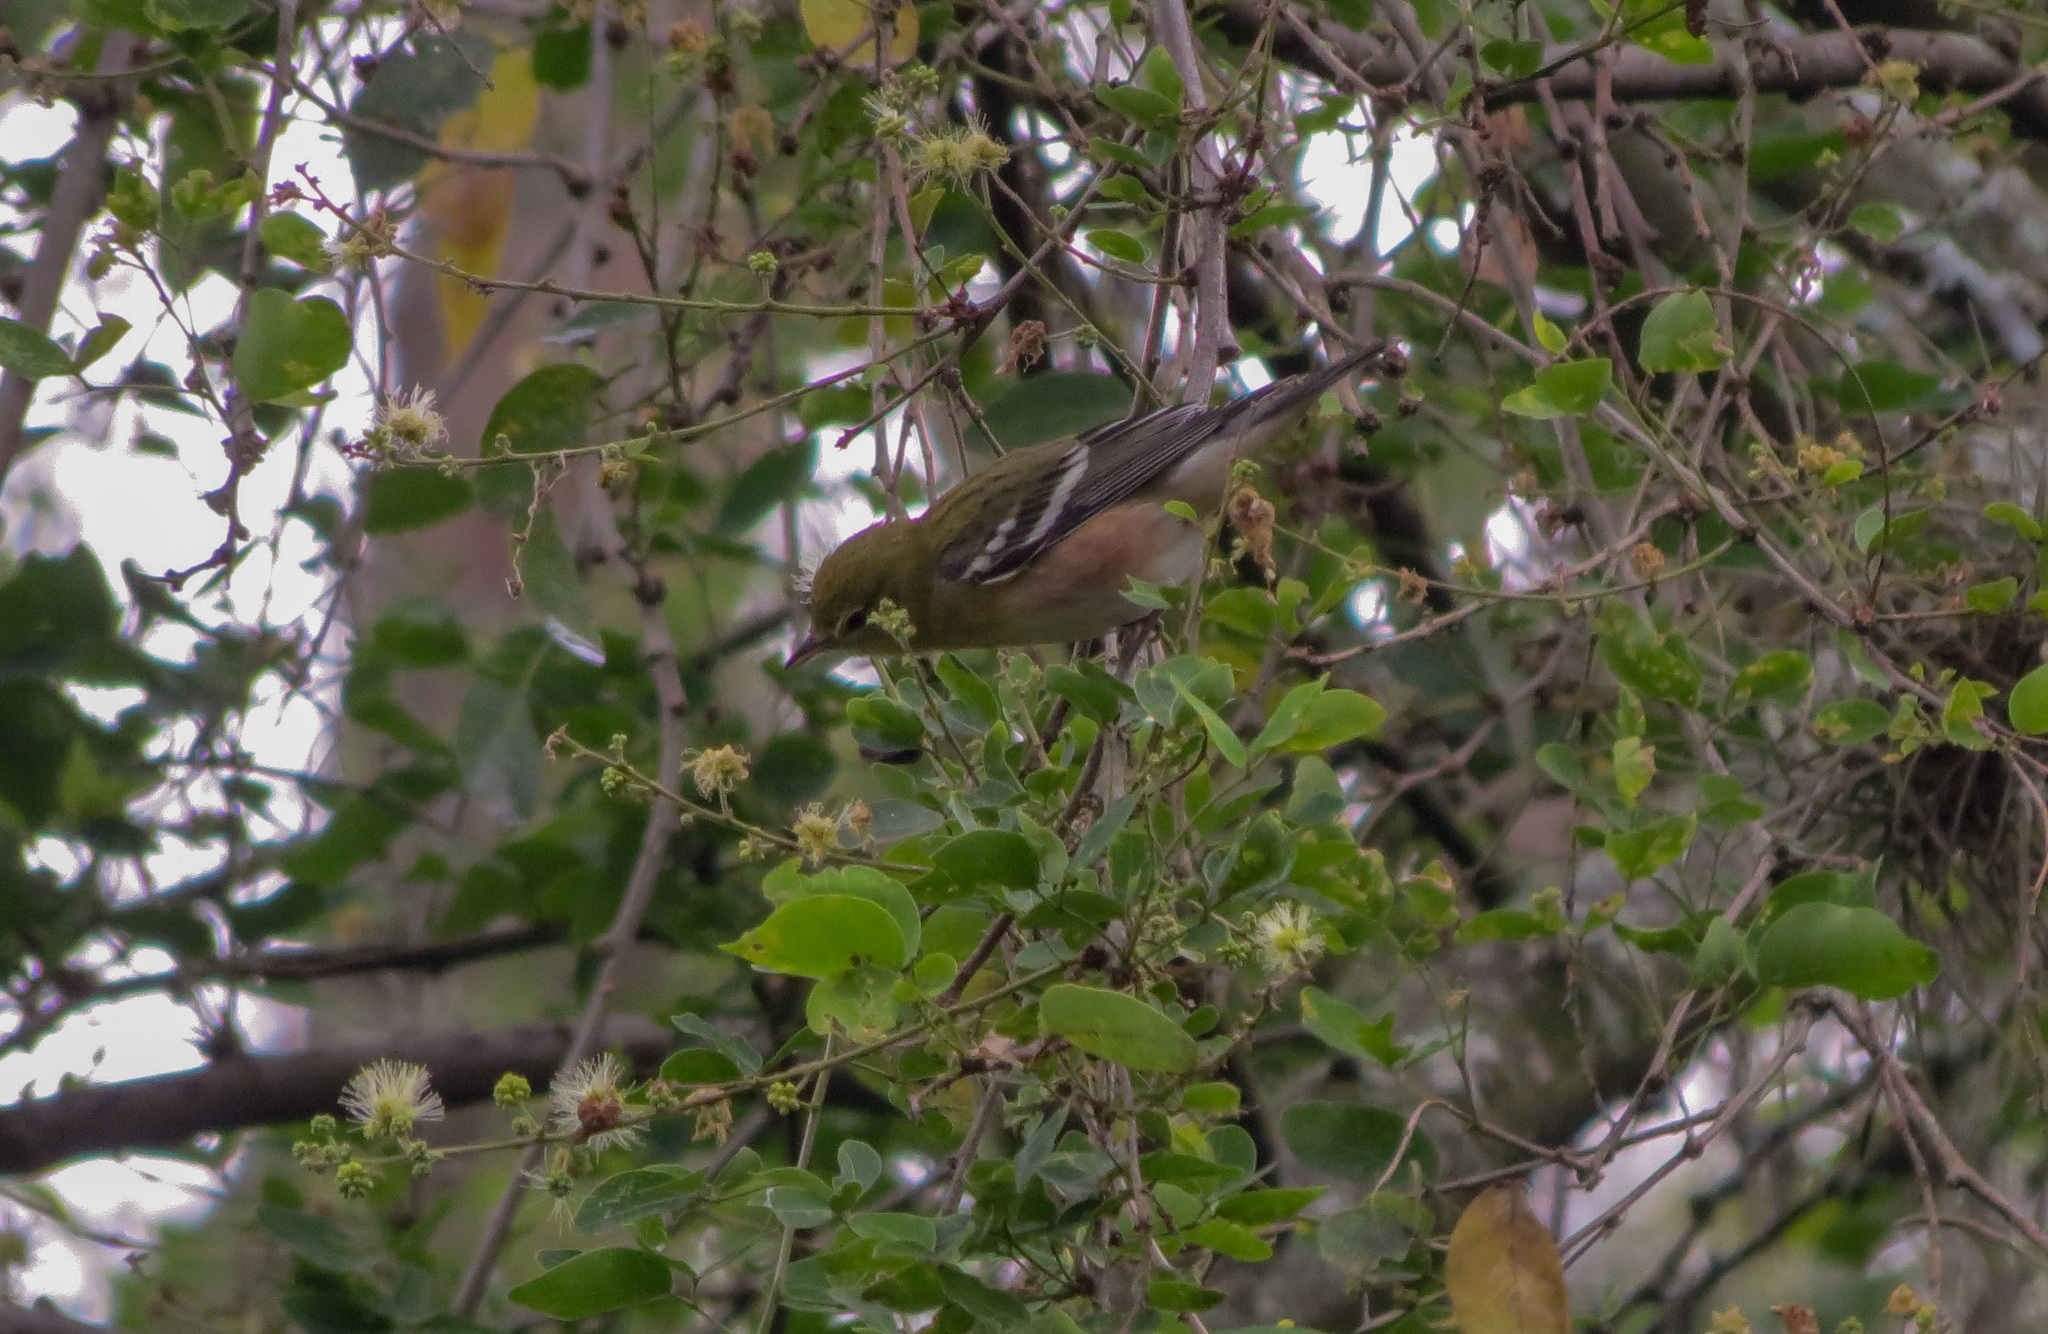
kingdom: Animalia
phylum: Chordata
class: Aves
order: Passeriformes
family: Parulidae
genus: Setophaga
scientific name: Setophaga castanea
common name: Bay-breasted warbler
